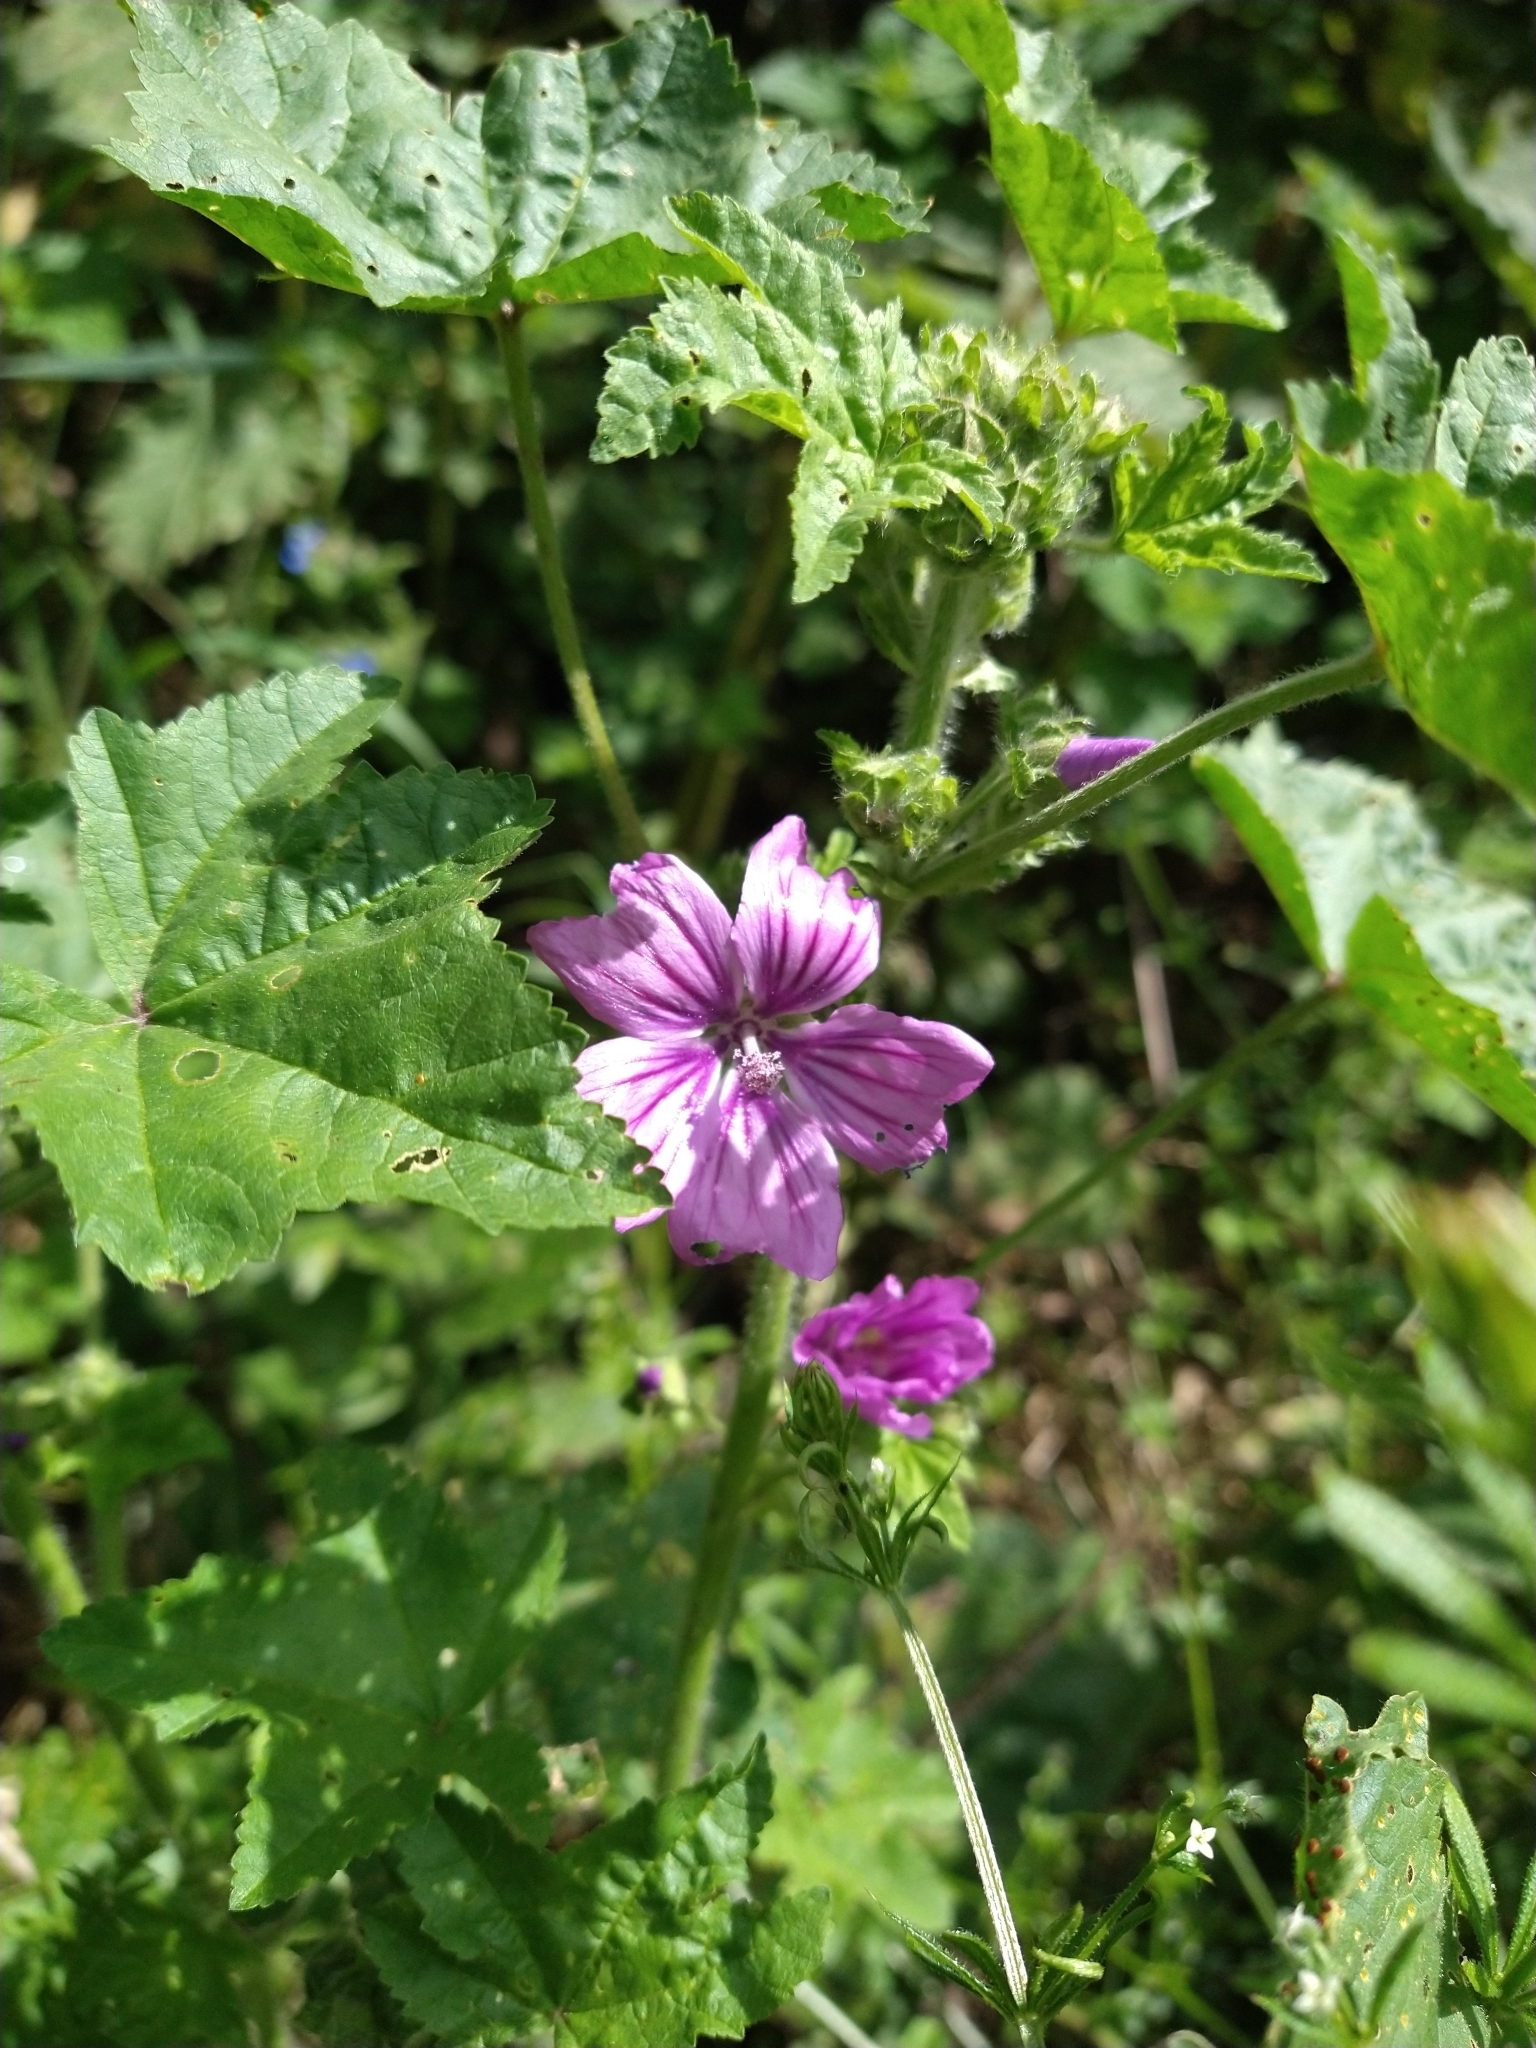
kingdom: Plantae
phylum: Tracheophyta
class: Magnoliopsida
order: Malvales
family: Malvaceae
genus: Malva
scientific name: Malva sylvestris
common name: Common mallow
